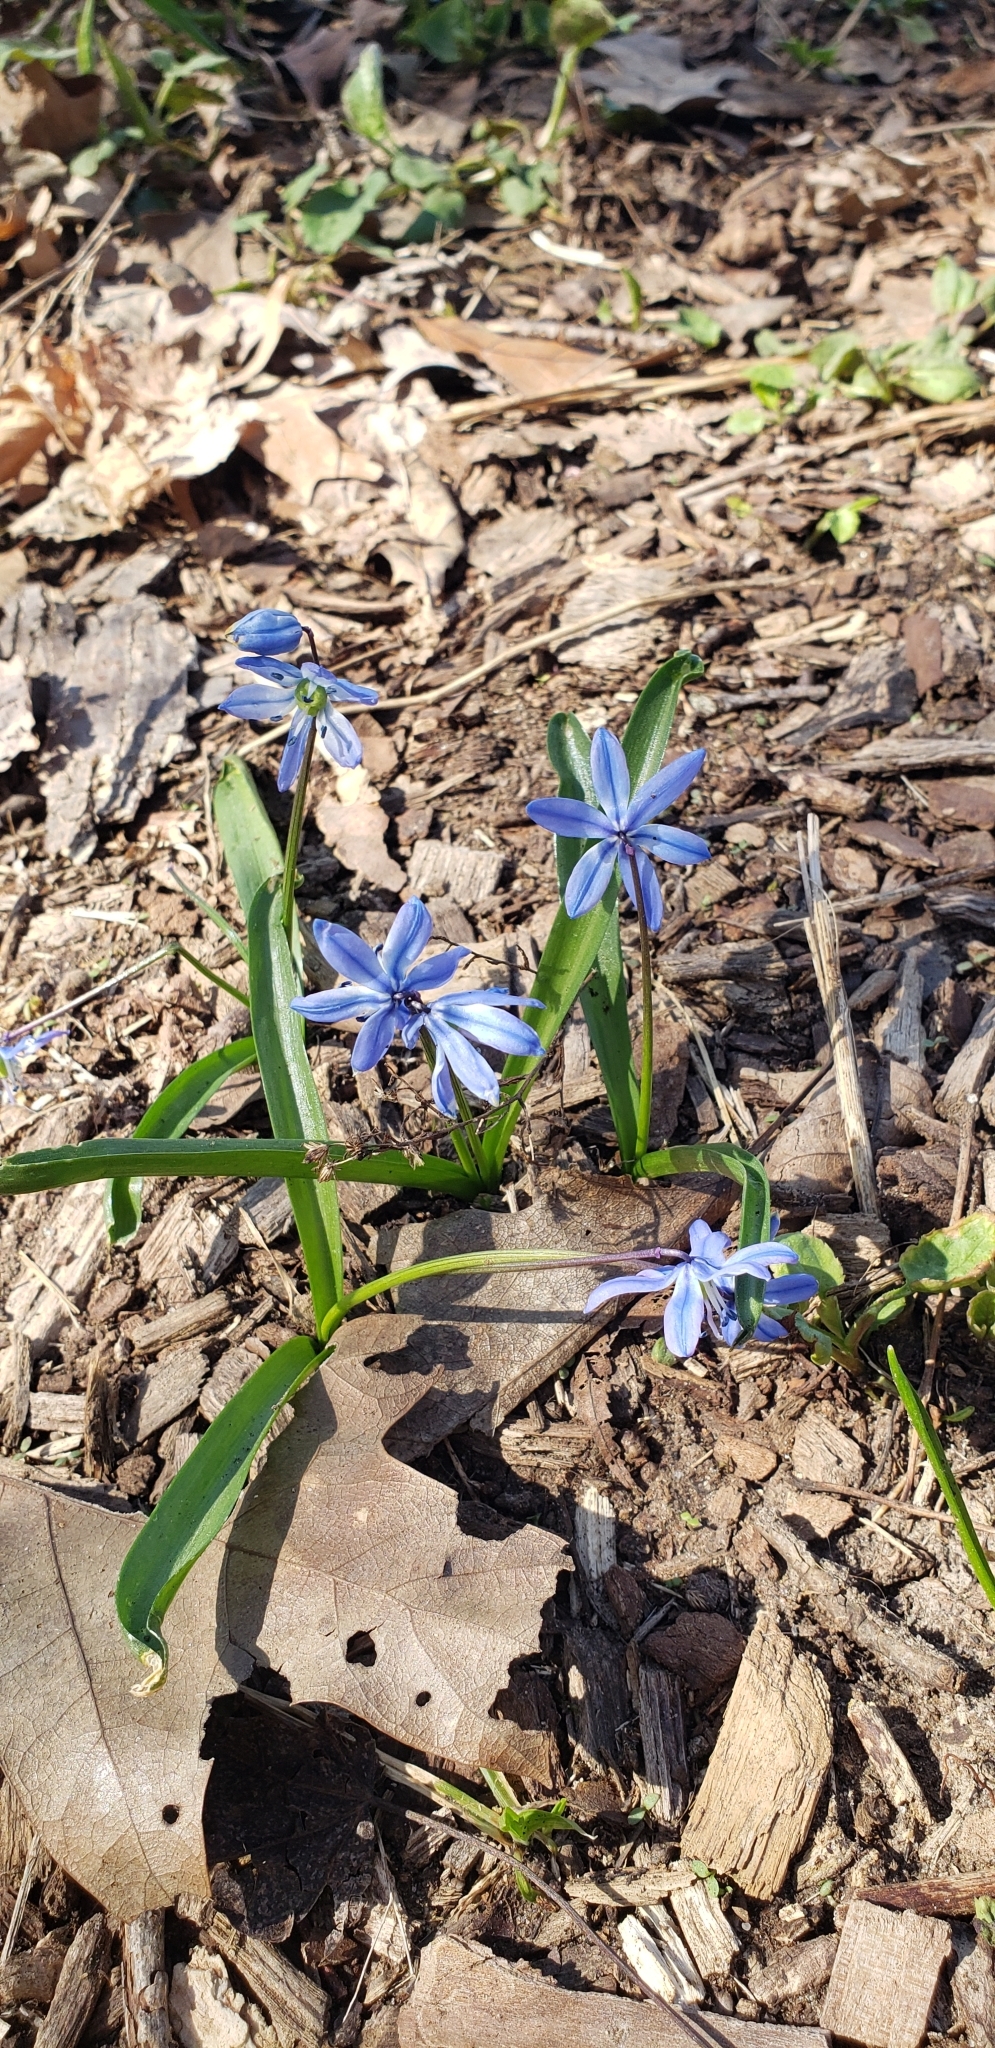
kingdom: Plantae
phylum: Tracheophyta
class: Liliopsida
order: Asparagales
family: Asparagaceae
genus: Scilla
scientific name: Scilla siberica
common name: Siberian squill
